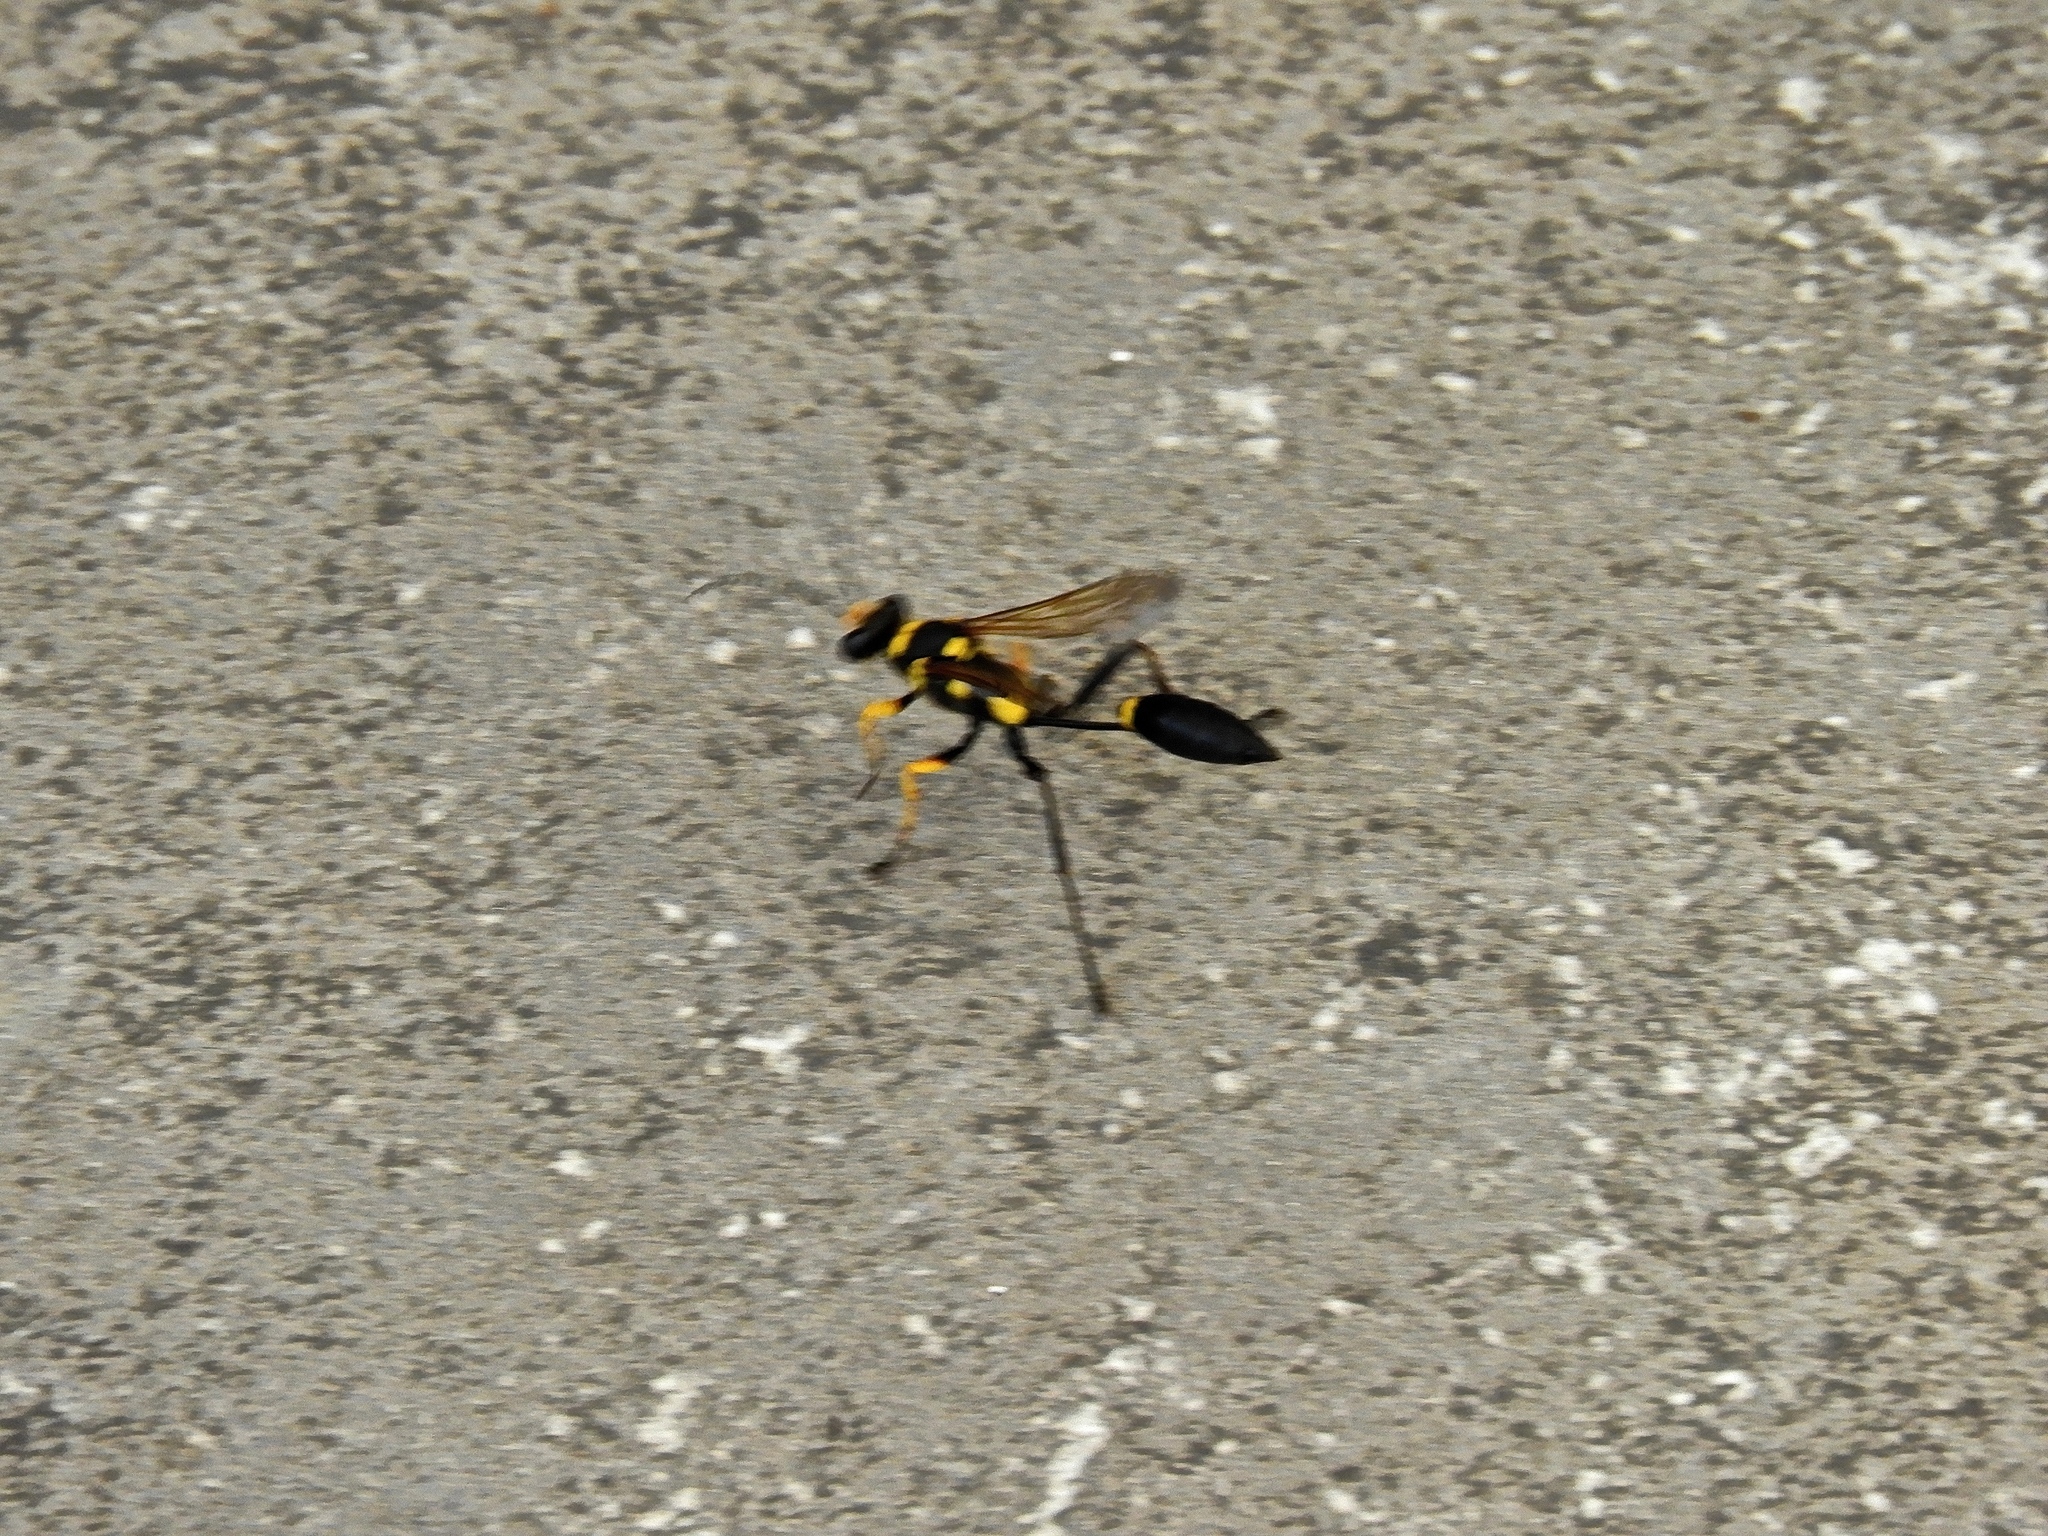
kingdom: Animalia
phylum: Arthropoda
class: Insecta
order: Hymenoptera
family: Sphecidae
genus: Sceliphron
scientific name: Sceliphron assimile
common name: Clayman's mud dauber
